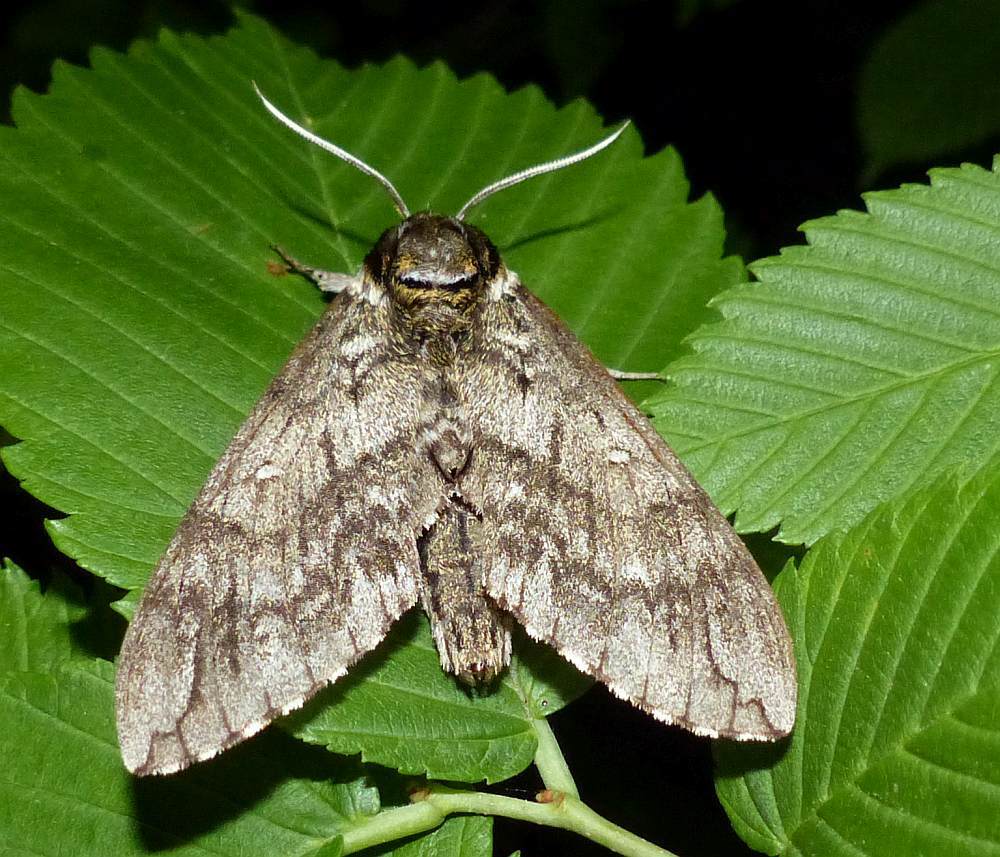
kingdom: Animalia
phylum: Arthropoda
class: Insecta
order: Lepidoptera
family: Sphingidae
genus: Ceratomia
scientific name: Ceratomia undulosa
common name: Waved sphinx
